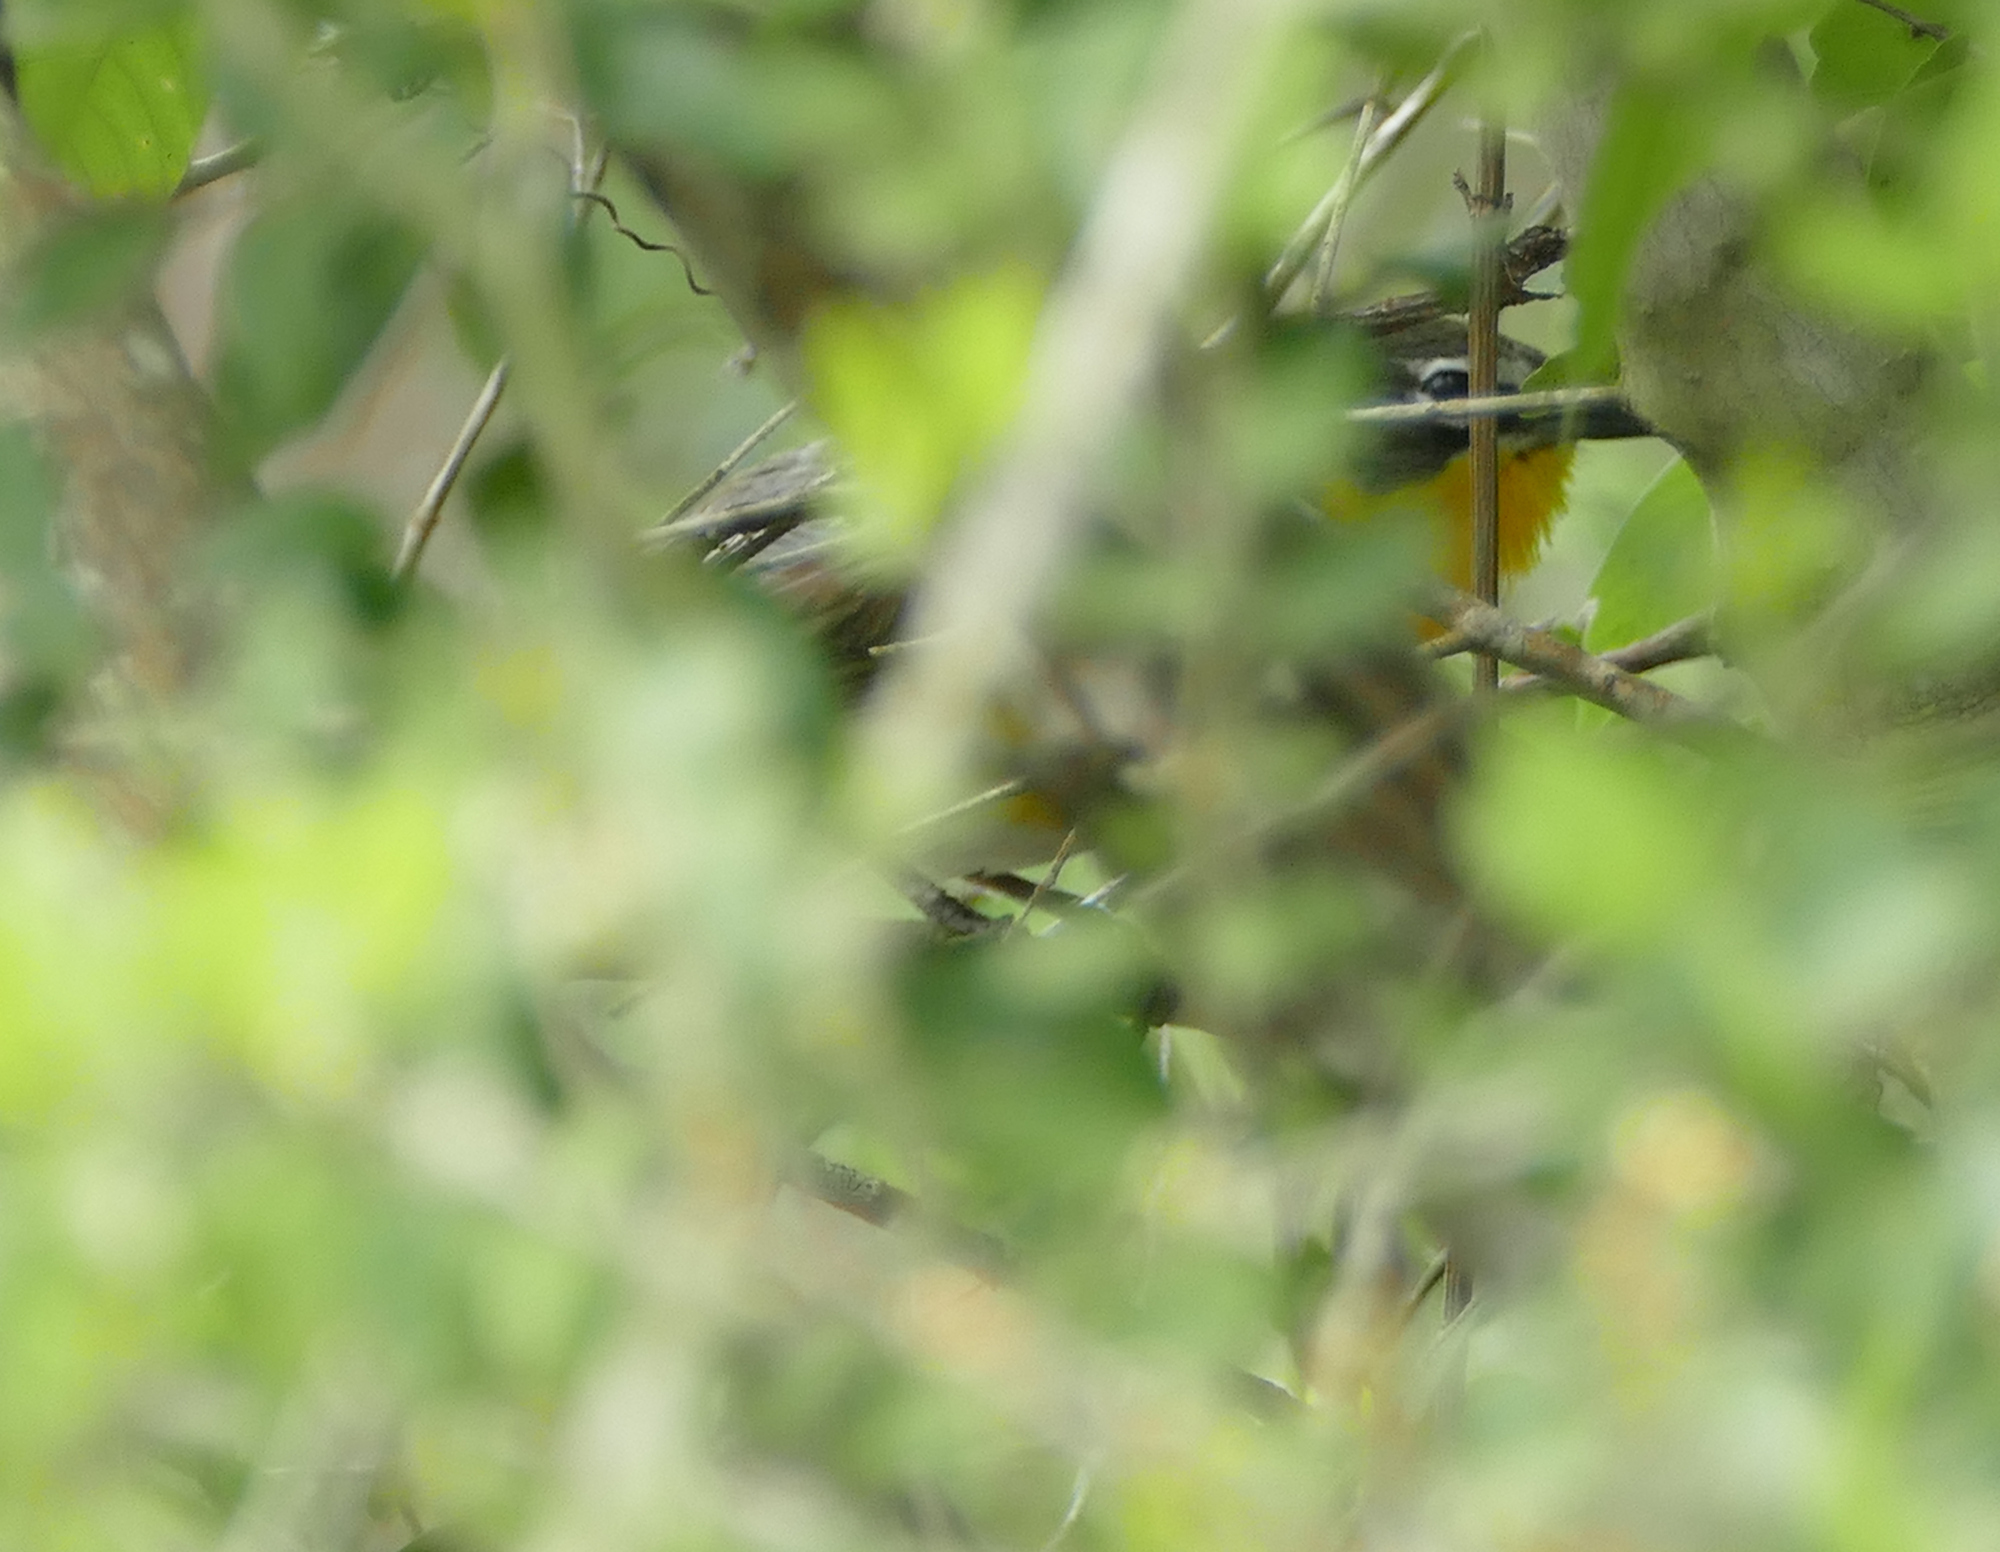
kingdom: Animalia
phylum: Chordata
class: Aves
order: Passeriformes
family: Parulidae
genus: Icteria
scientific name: Icteria virens
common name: Yellow-breasted chat
